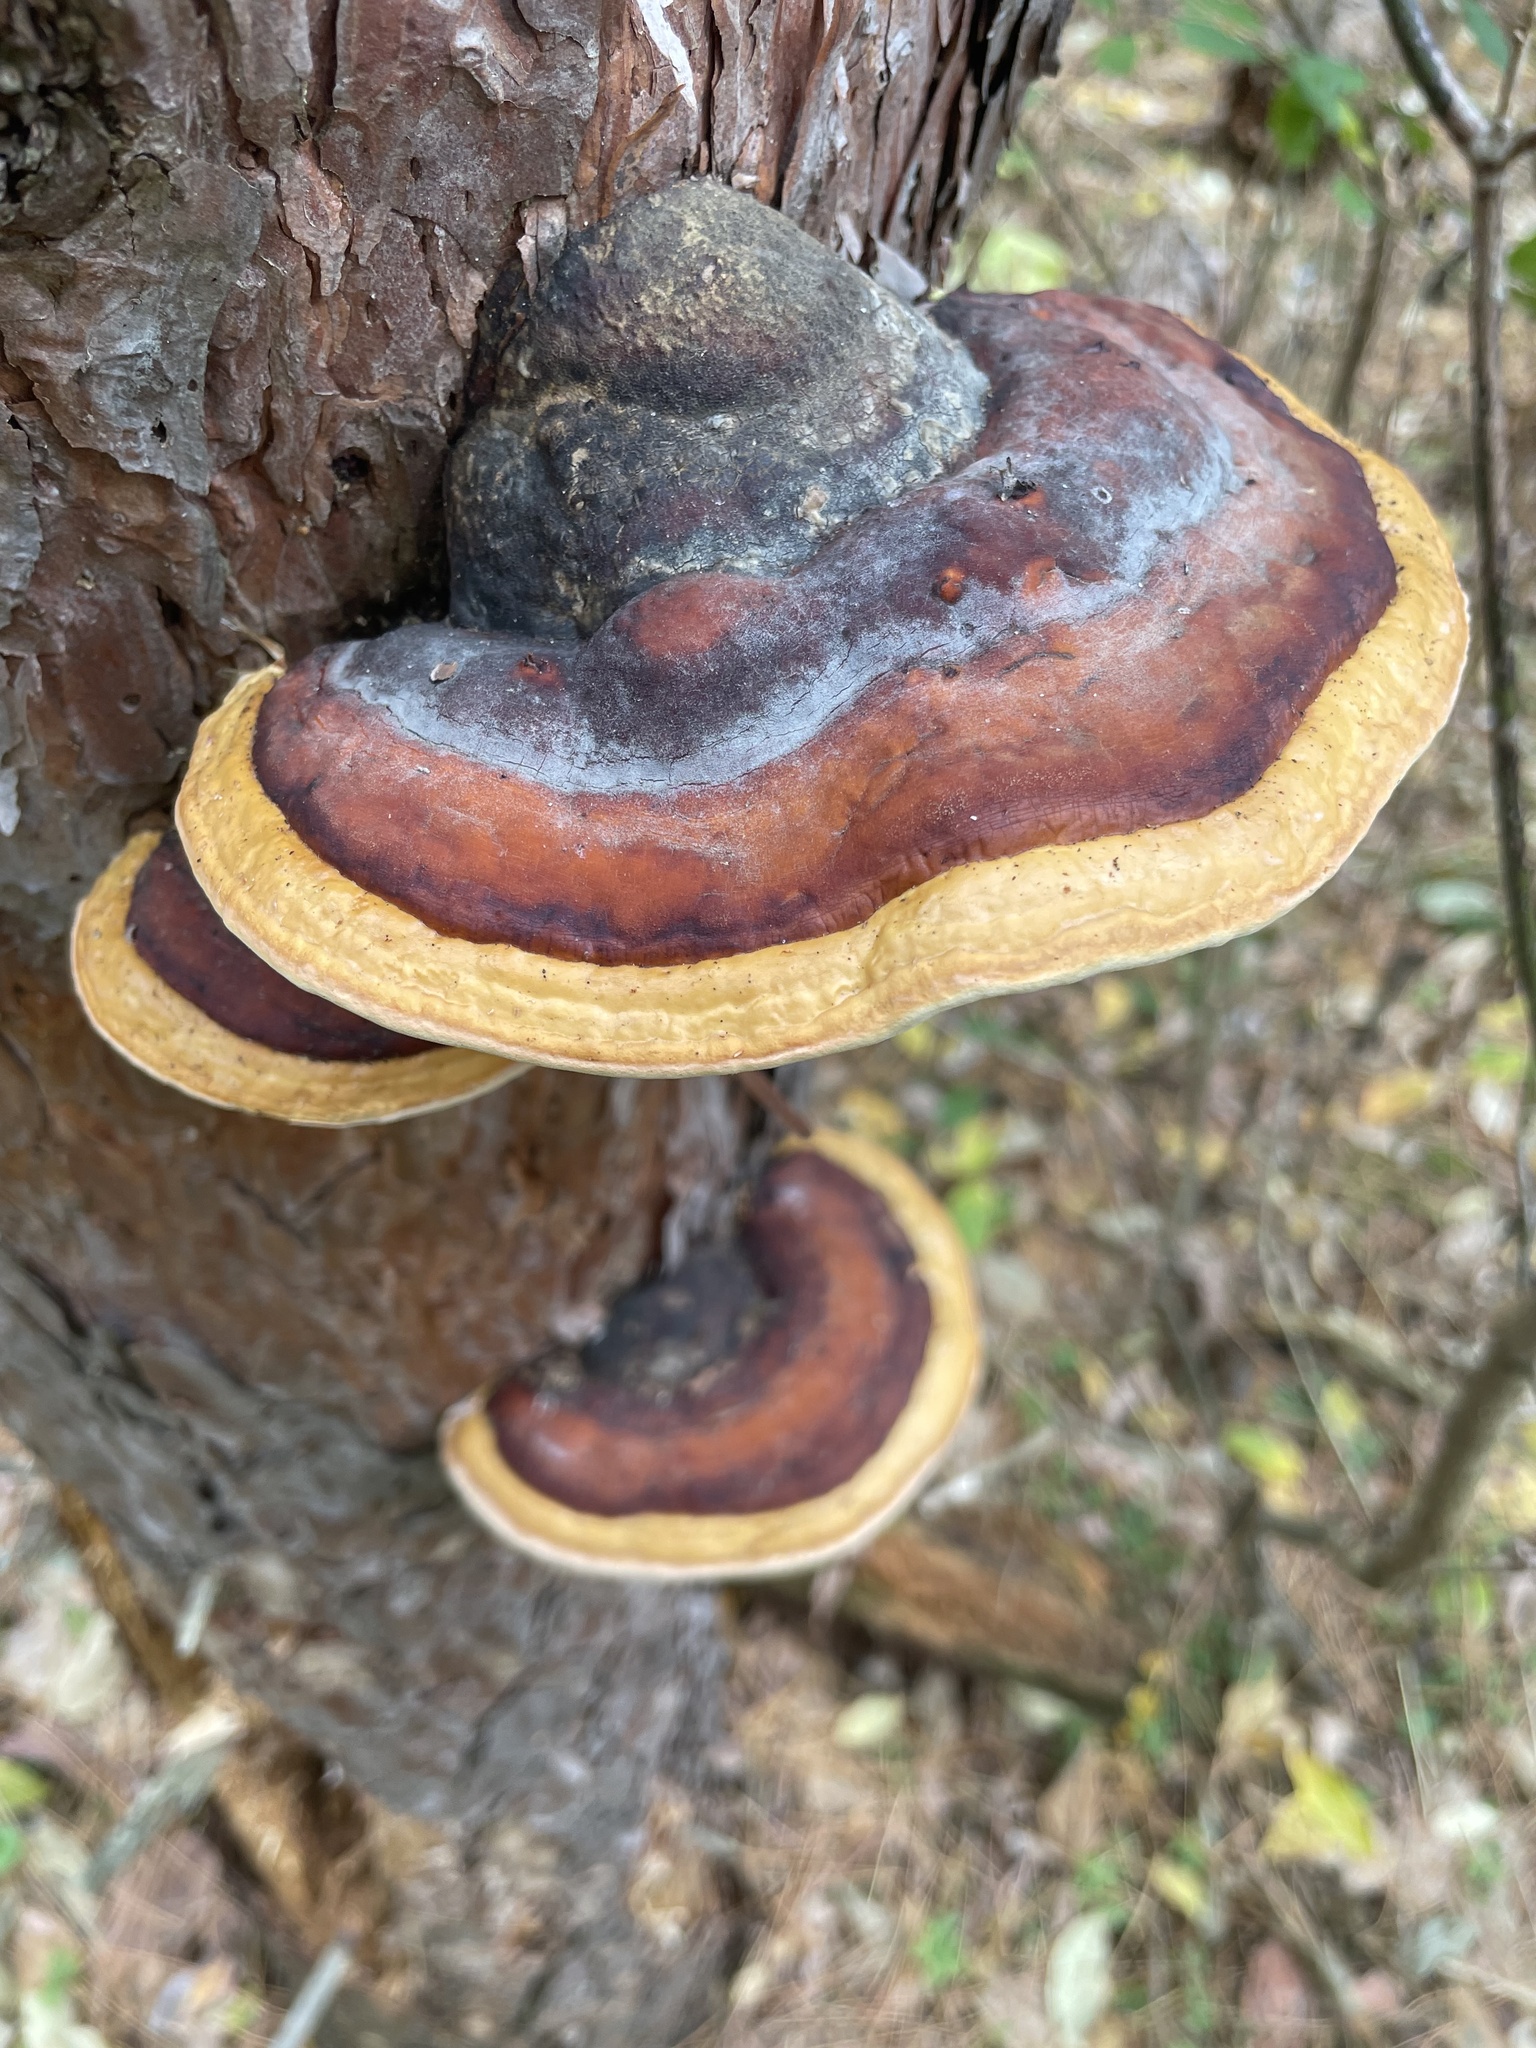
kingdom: Fungi
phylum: Basidiomycota
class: Agaricomycetes
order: Polyporales
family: Fomitopsidaceae
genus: Fomitopsis
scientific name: Fomitopsis mounceae
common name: Northern red belt
